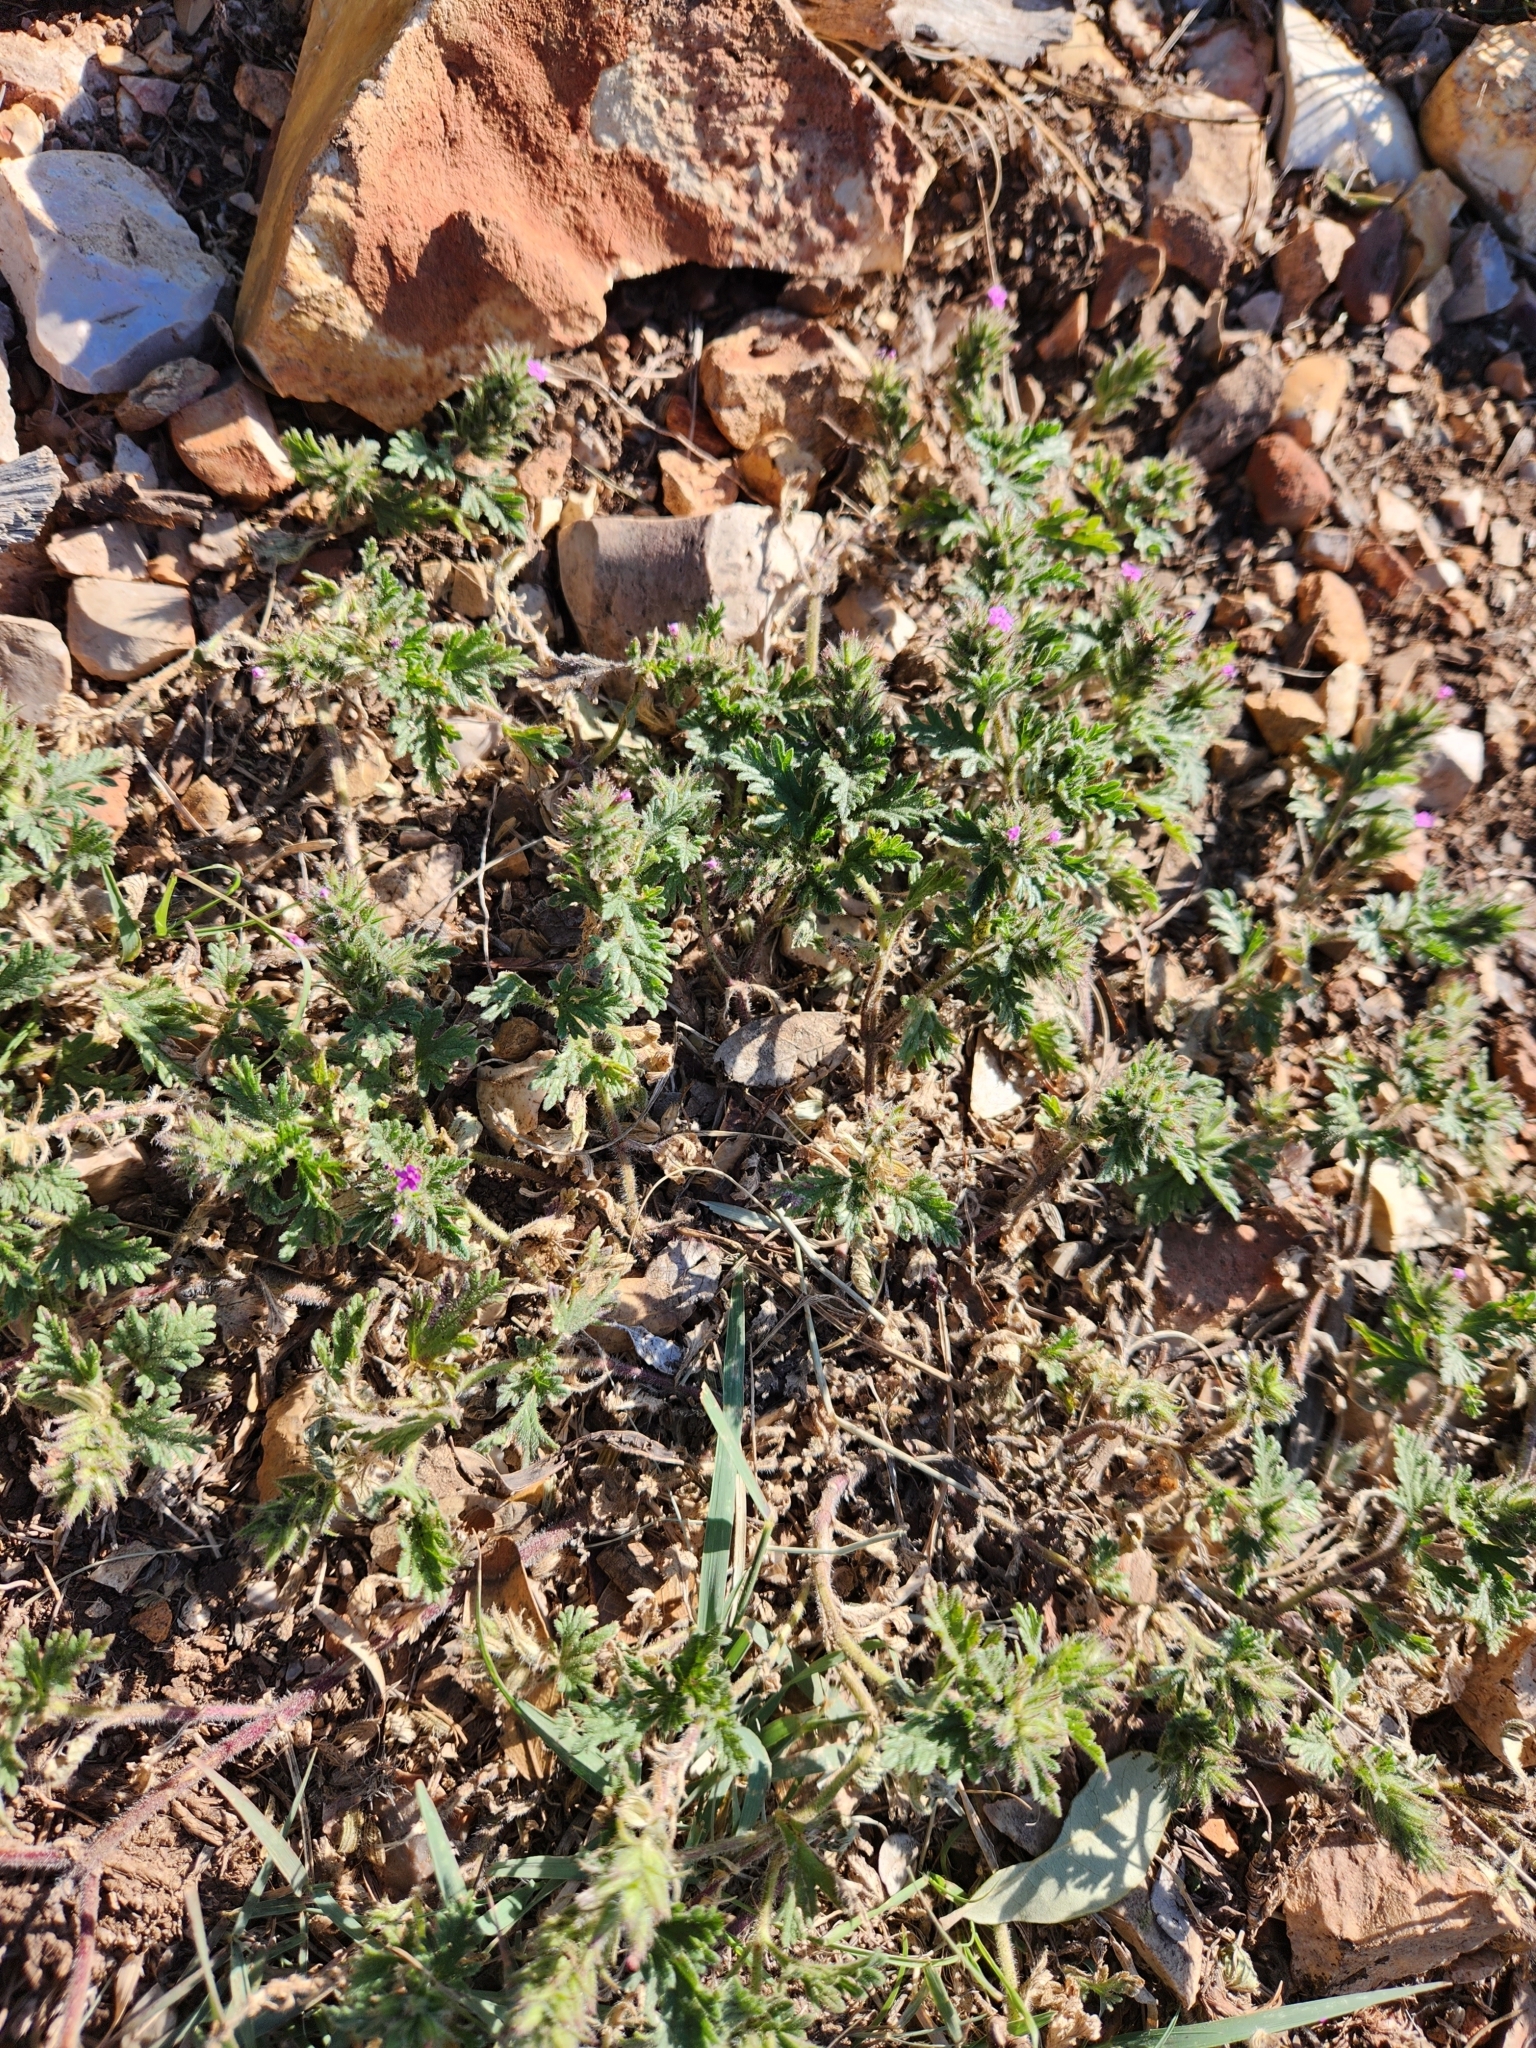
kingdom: Plantae
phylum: Tracheophyta
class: Magnoliopsida
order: Lamiales
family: Verbenaceae
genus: Verbena
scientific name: Verbena pumila
